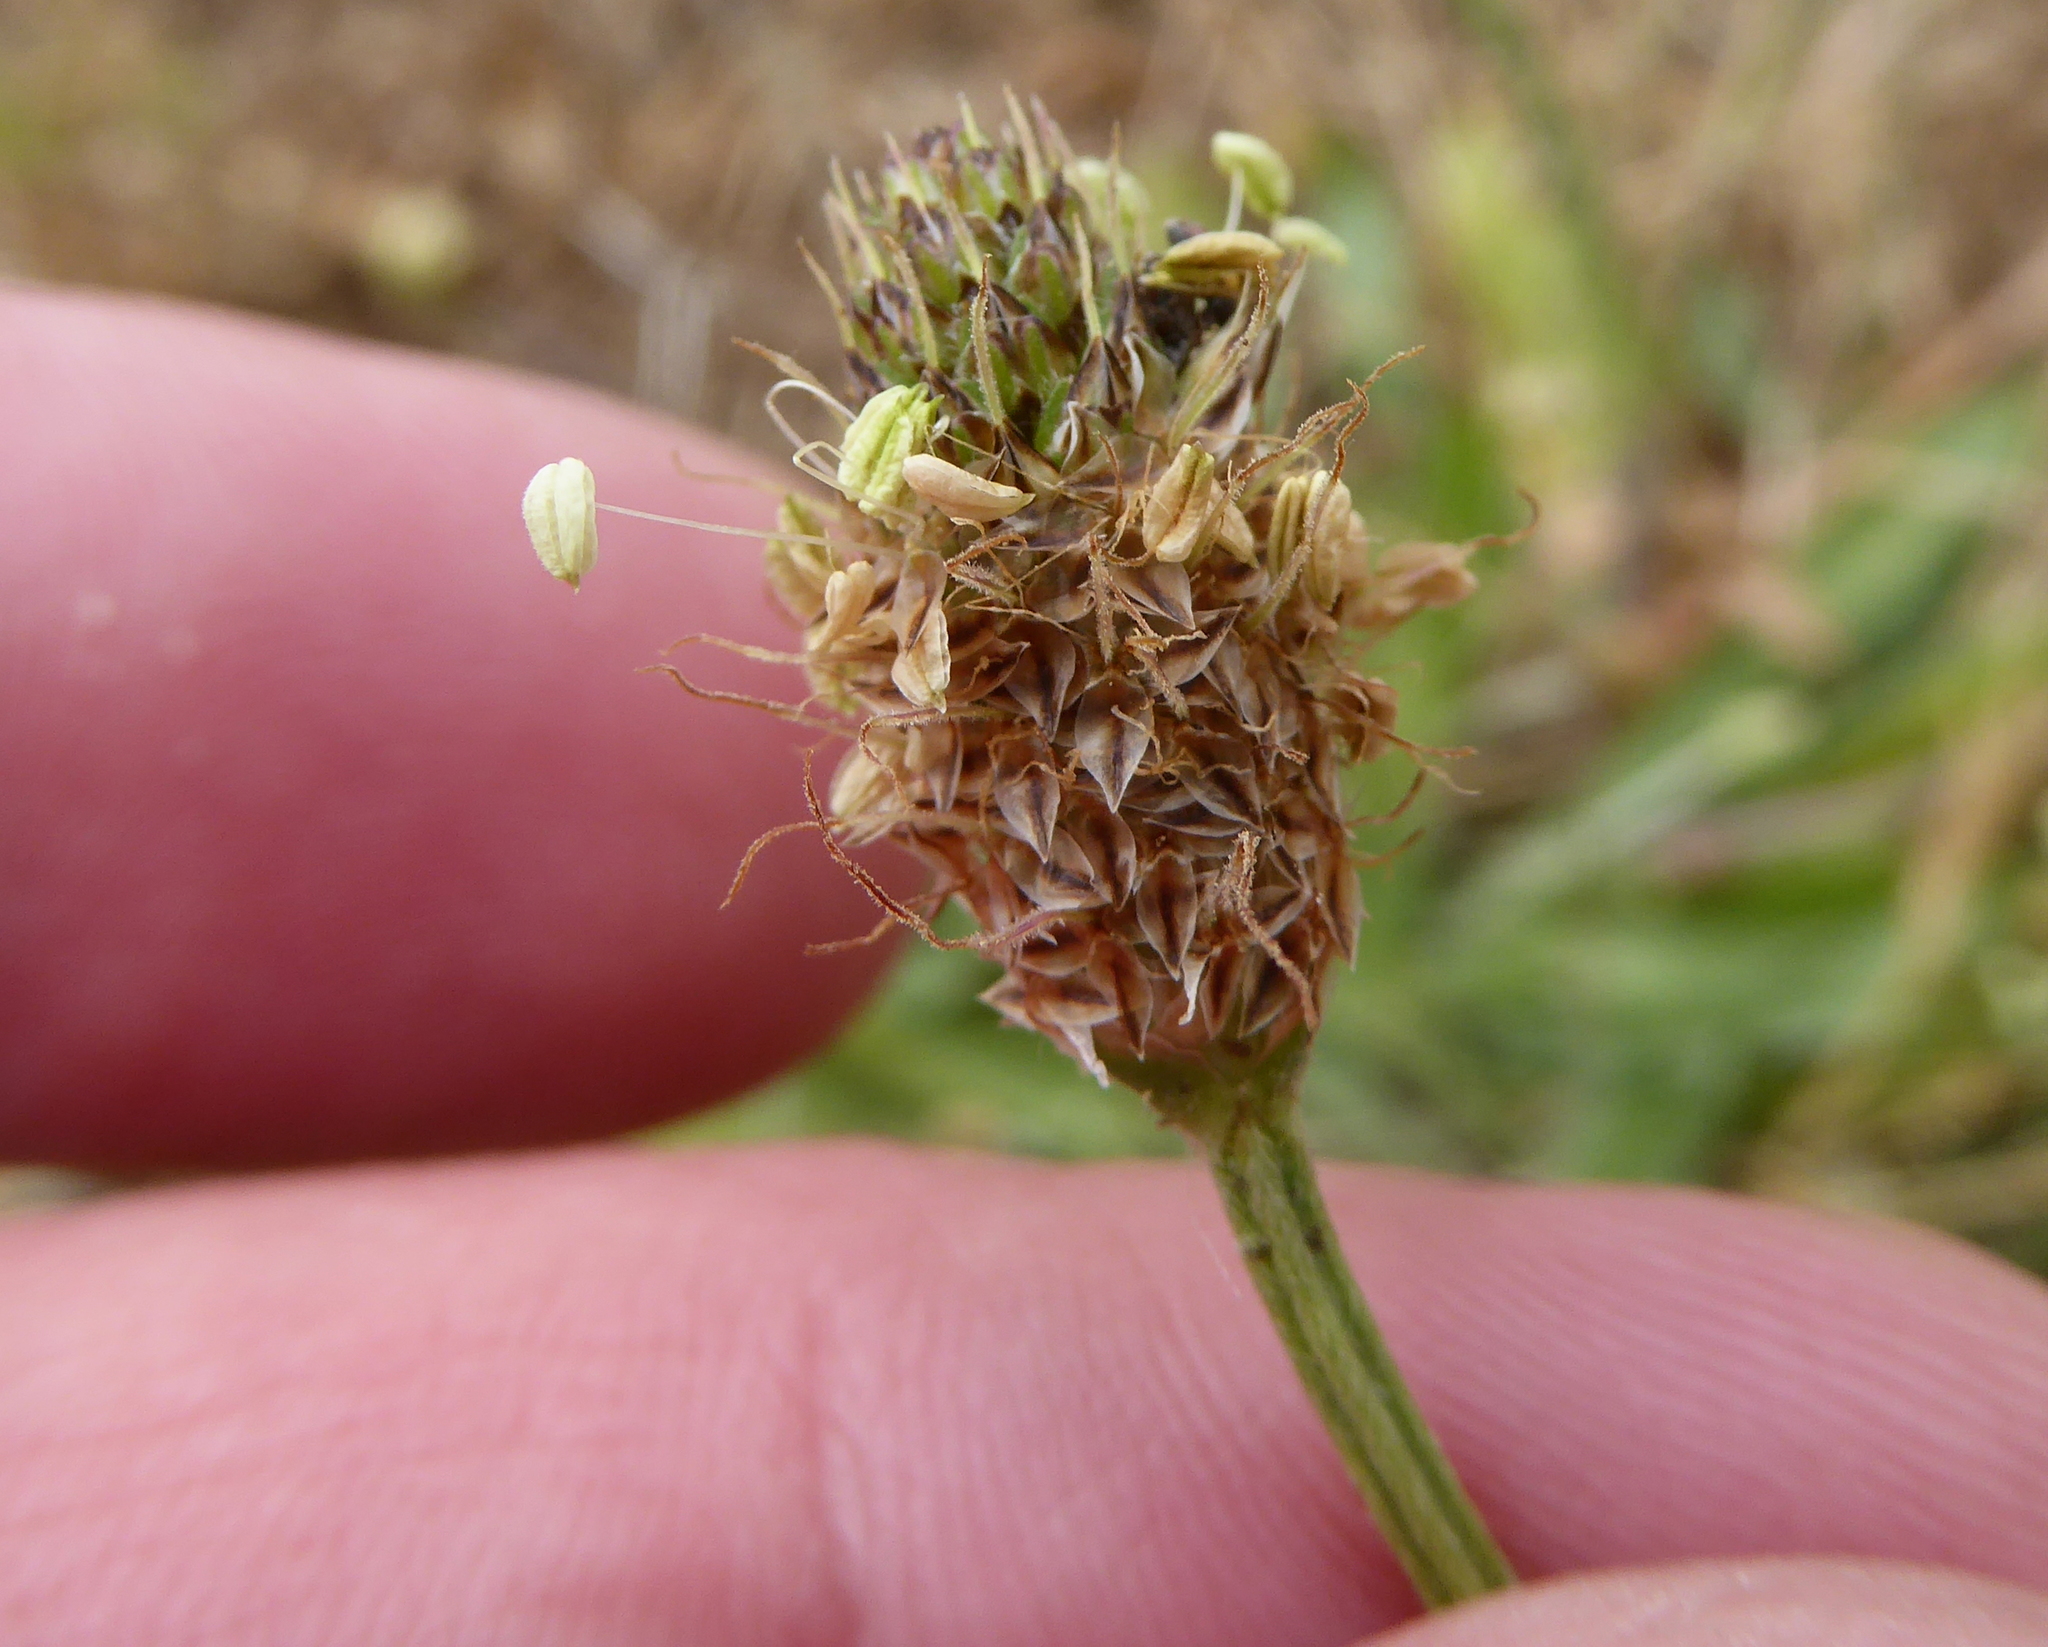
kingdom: Plantae
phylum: Tracheophyta
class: Magnoliopsida
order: Lamiales
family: Plantaginaceae
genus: Plantago
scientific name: Plantago lanceolata
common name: Ribwort plantain
